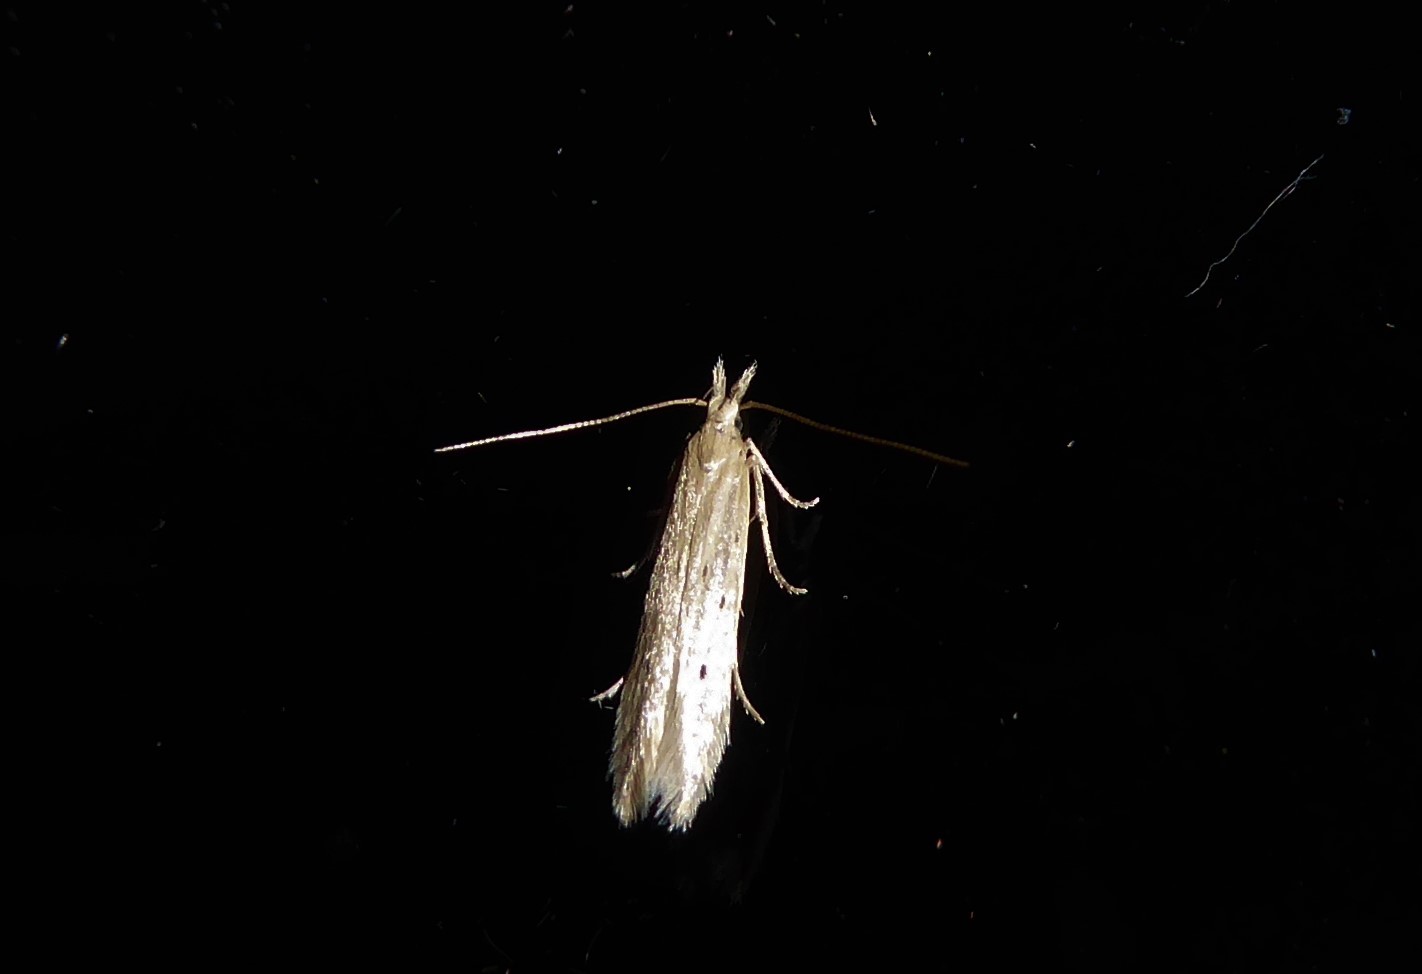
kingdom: Animalia
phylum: Arthropoda
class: Insecta
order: Lepidoptera
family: Gelechiidae
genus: Epiphthora
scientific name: Epiphthora calamogonus
